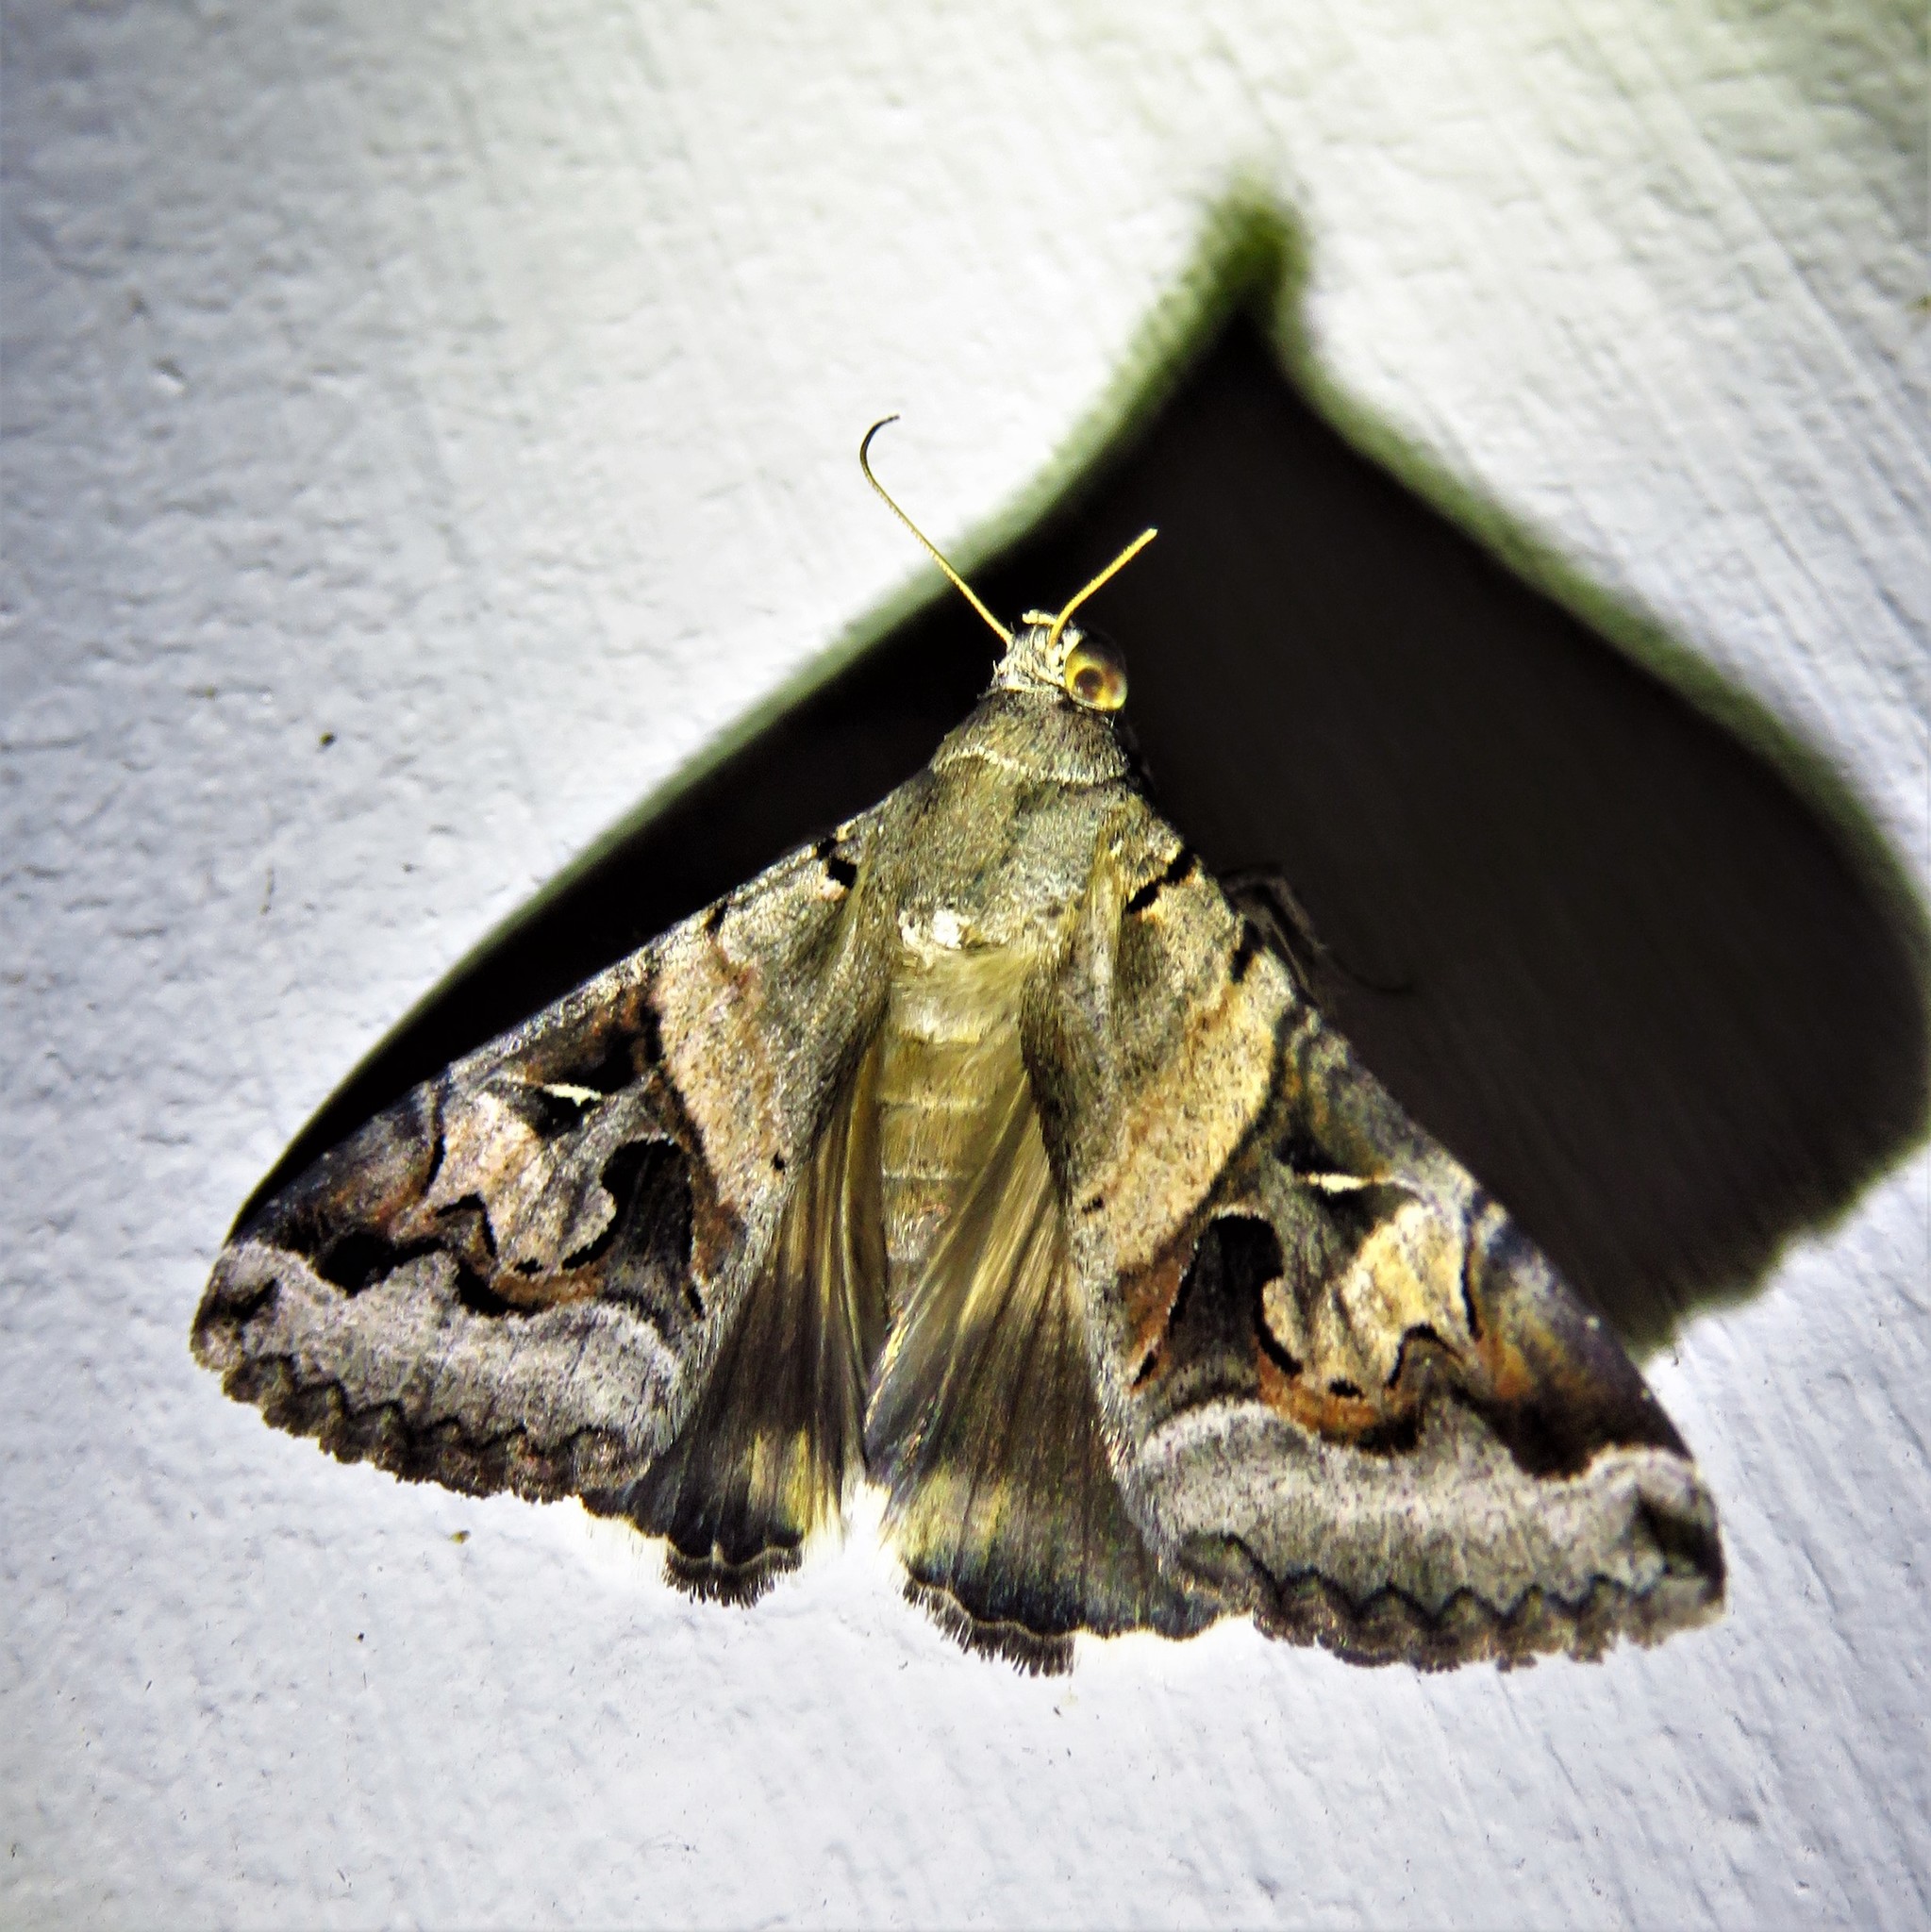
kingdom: Animalia
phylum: Arthropoda
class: Insecta
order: Lepidoptera
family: Erebidae
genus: Melipotis
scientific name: Melipotis indomita
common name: Moth
